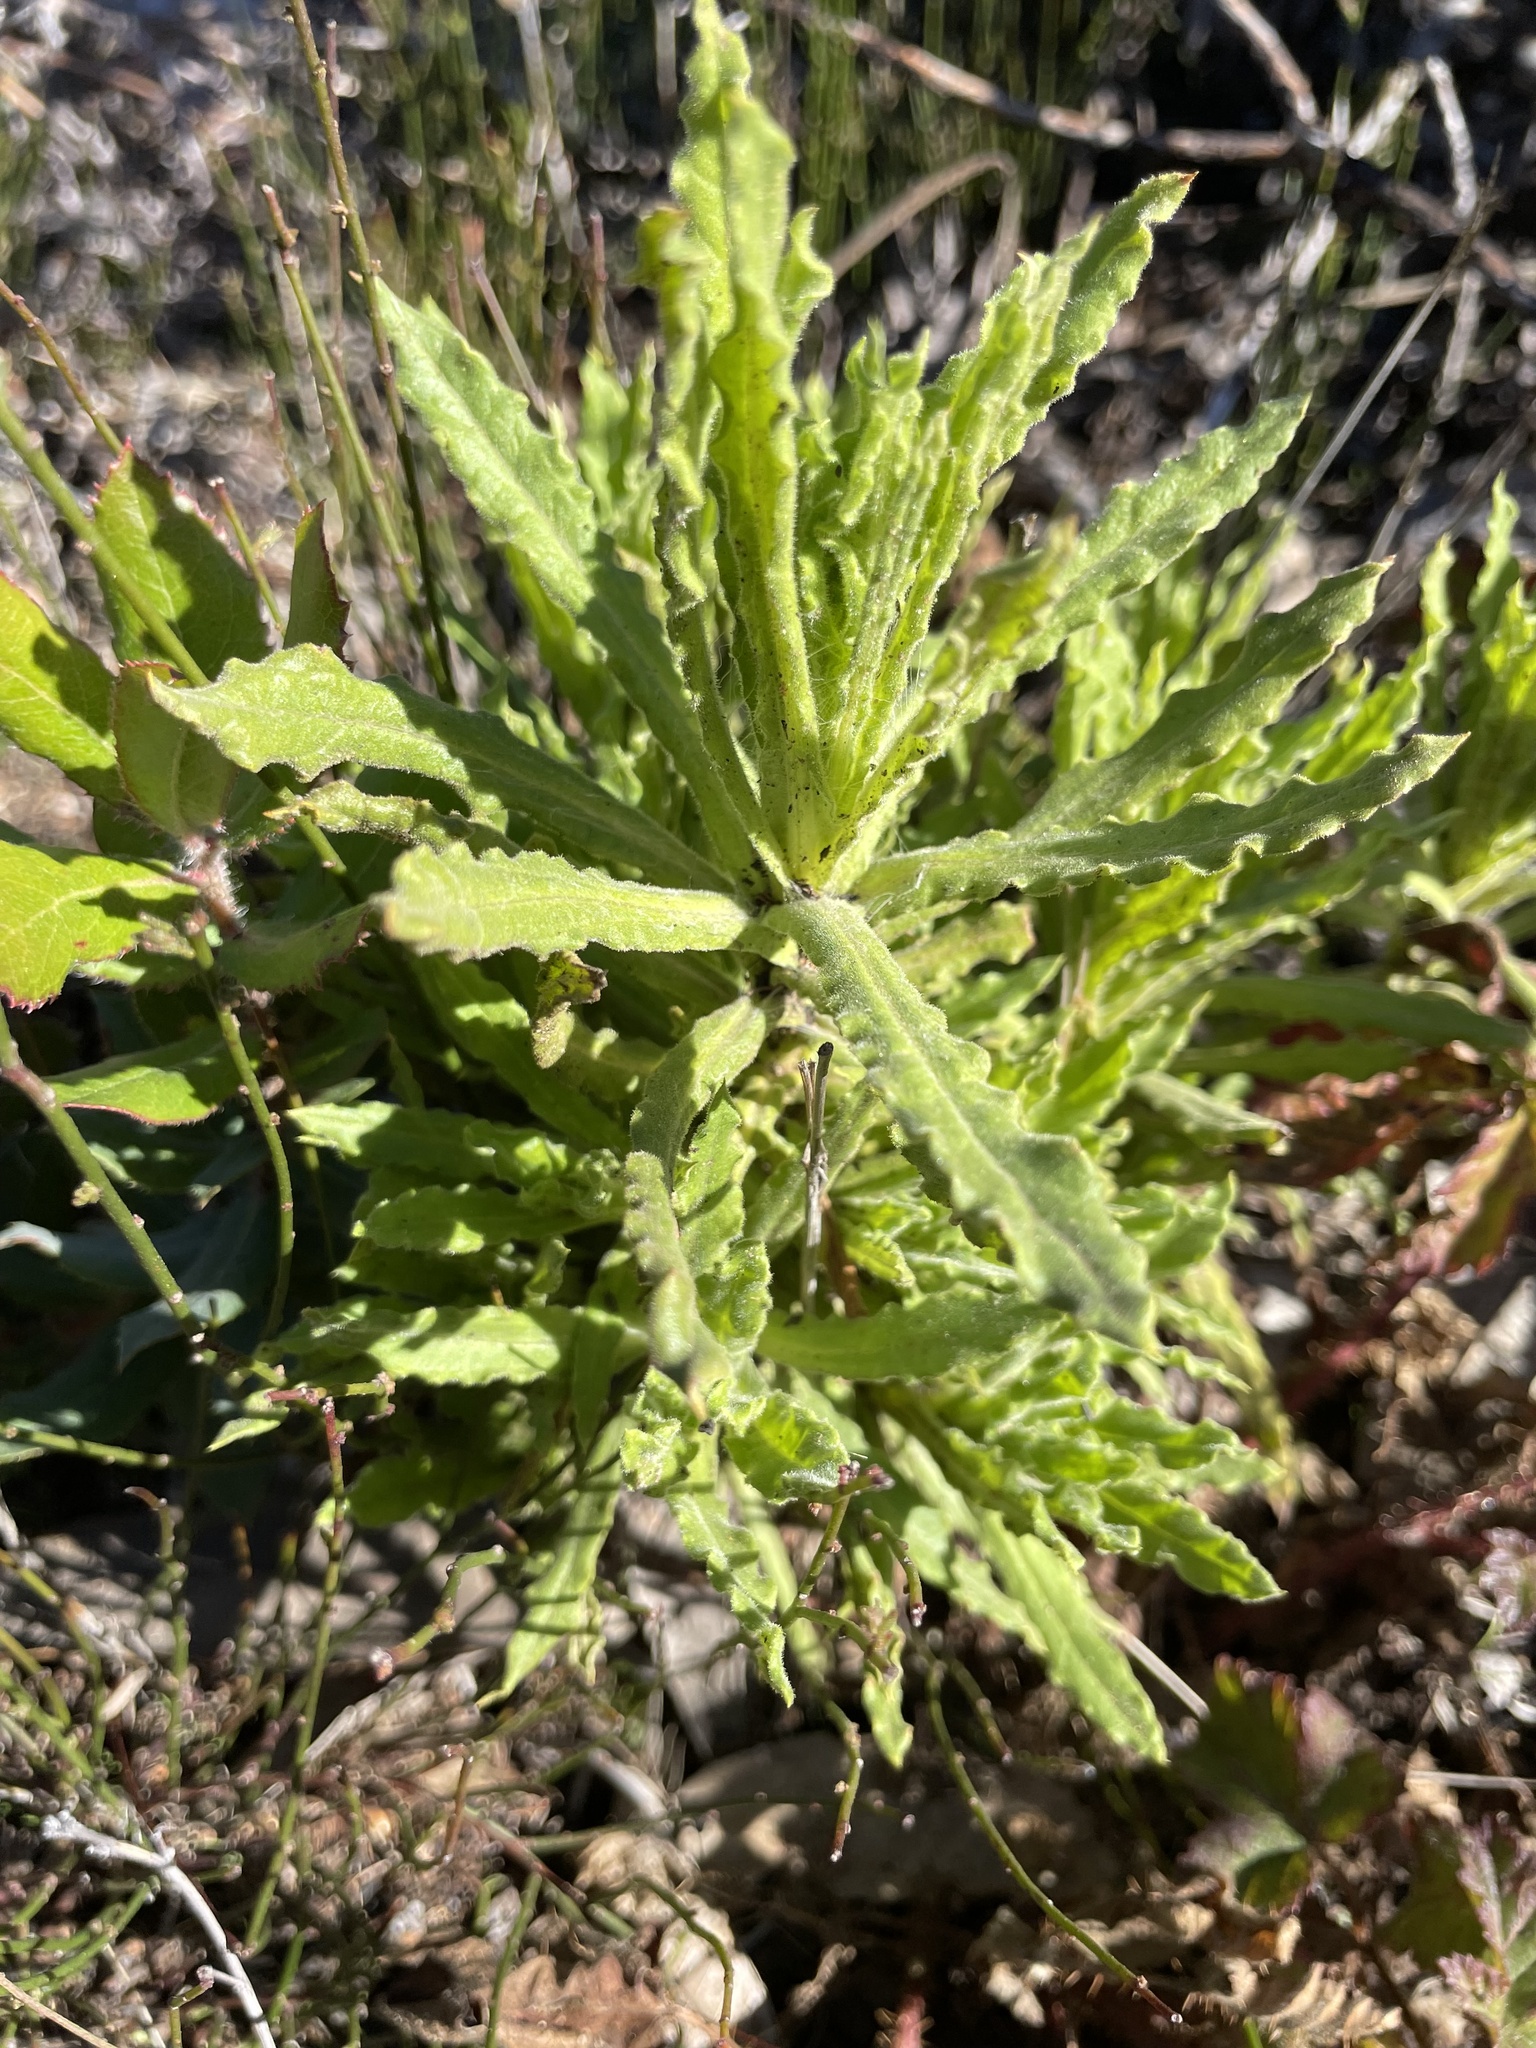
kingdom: Plantae
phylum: Tracheophyta
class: Magnoliopsida
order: Asterales
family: Asteraceae
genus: Pseudognaphalium
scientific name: Pseudognaphalium californicum
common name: California rabbit-tobacco
